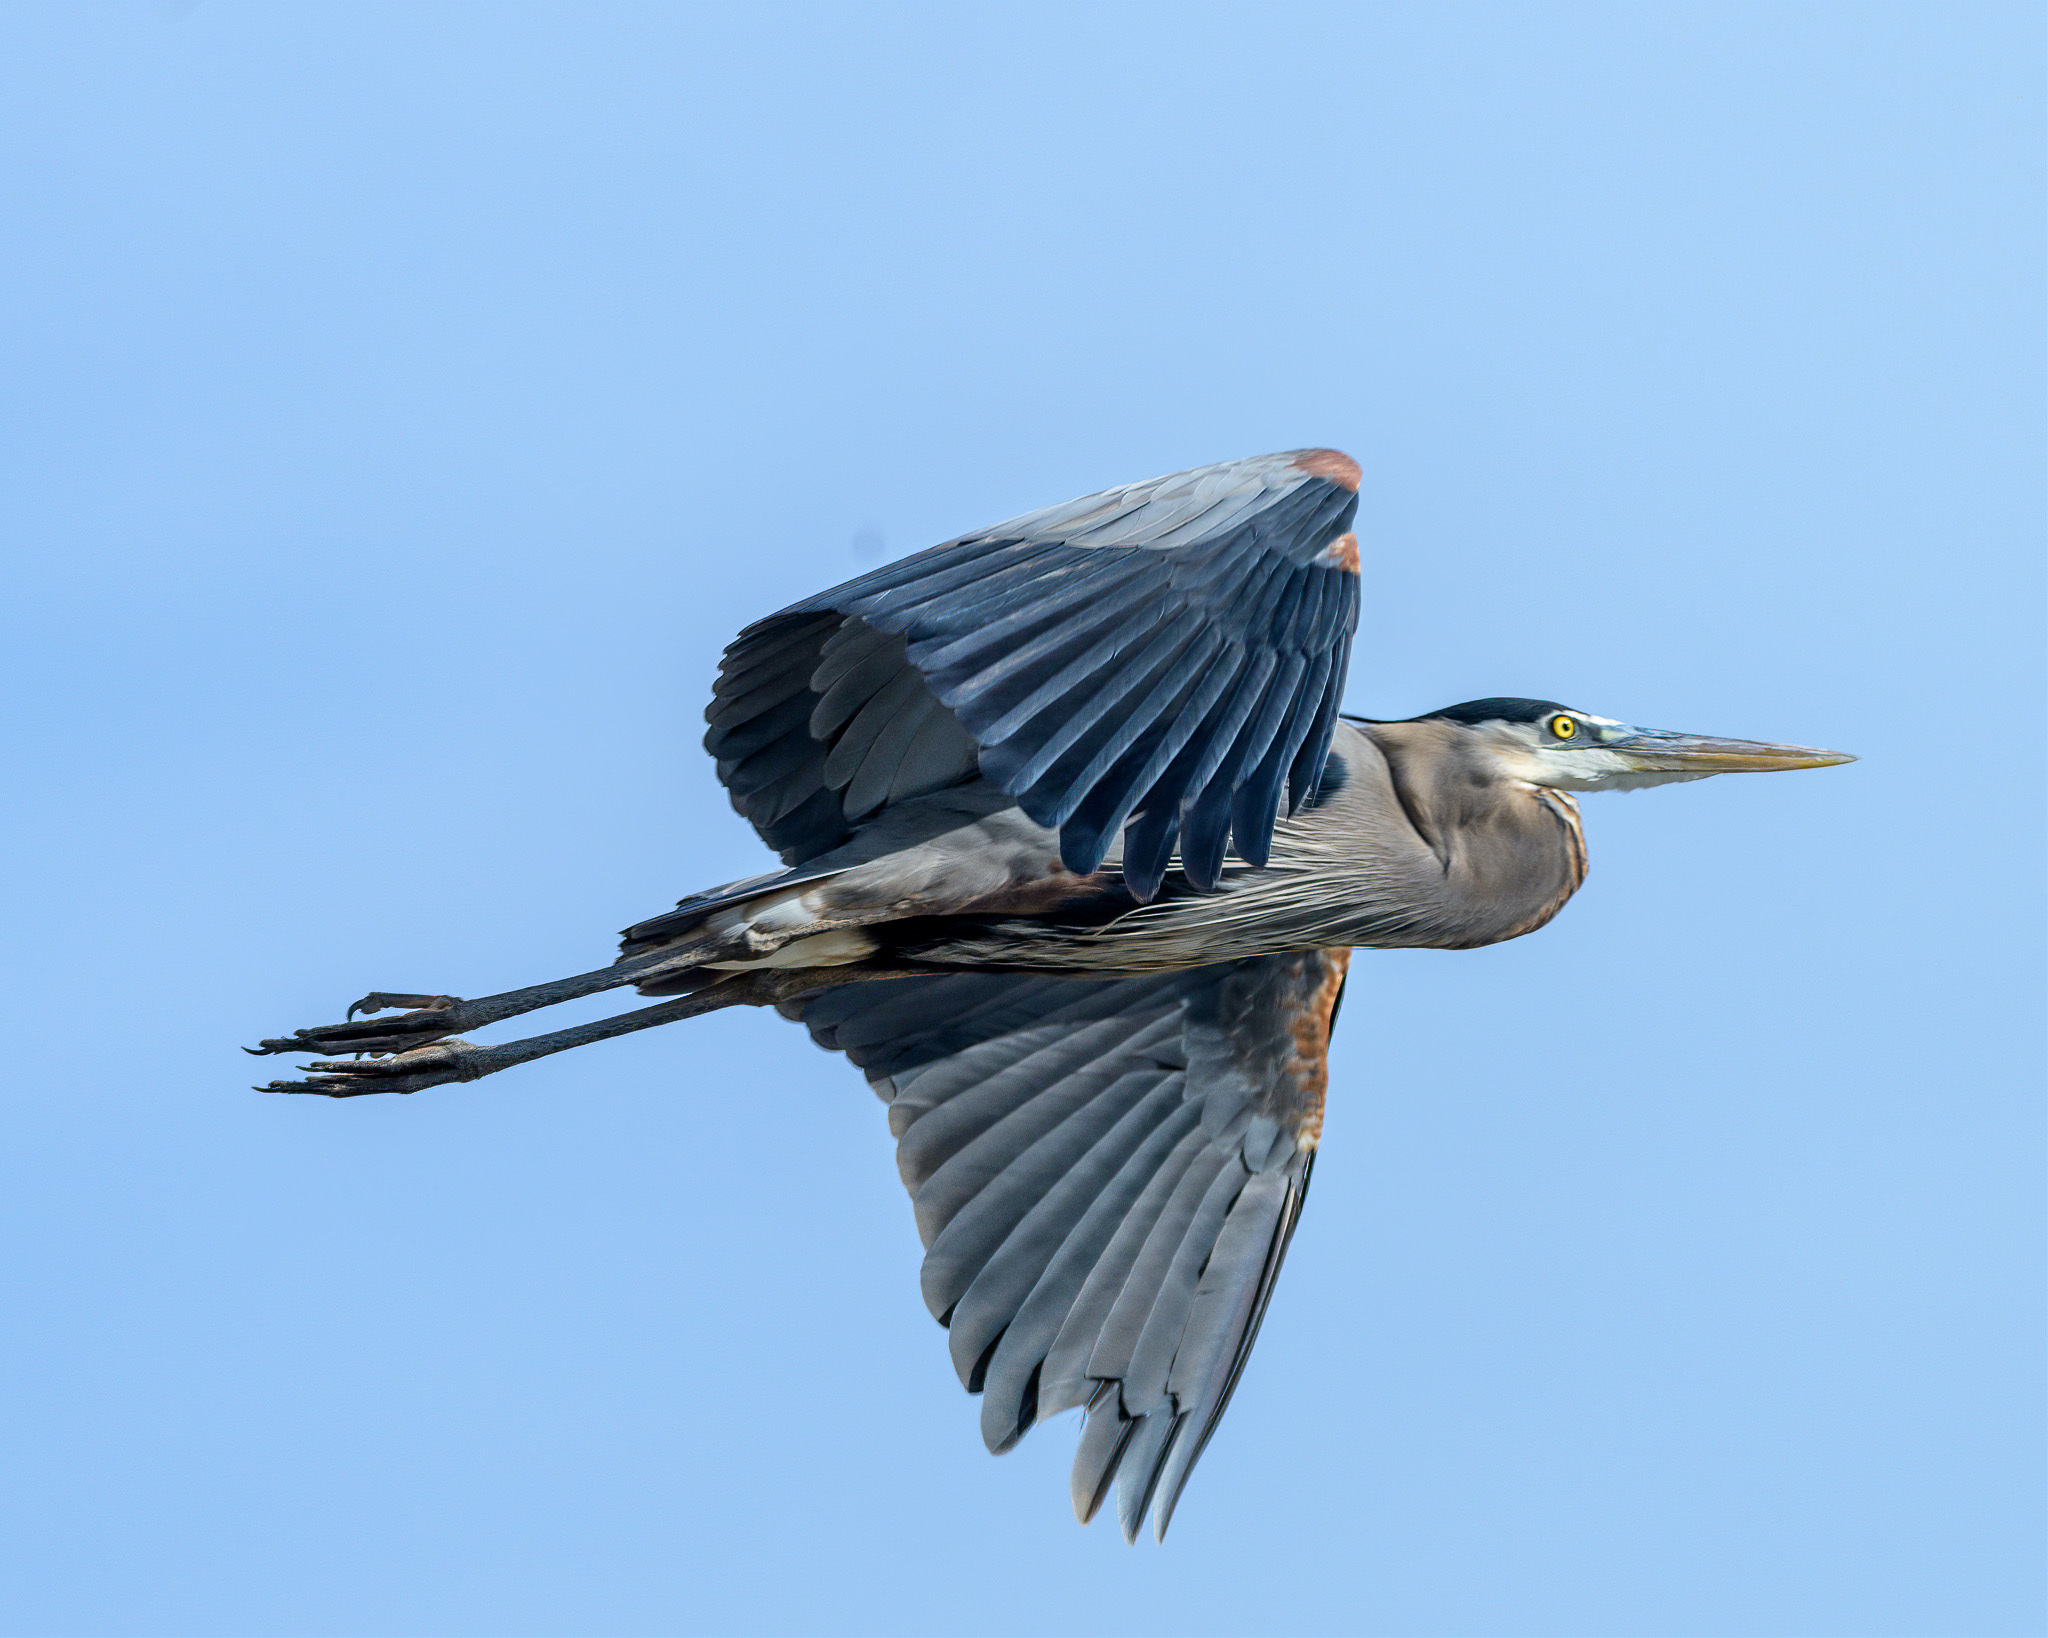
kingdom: Animalia
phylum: Chordata
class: Aves
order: Pelecaniformes
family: Ardeidae
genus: Ardea
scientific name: Ardea herodias
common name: Great blue heron
